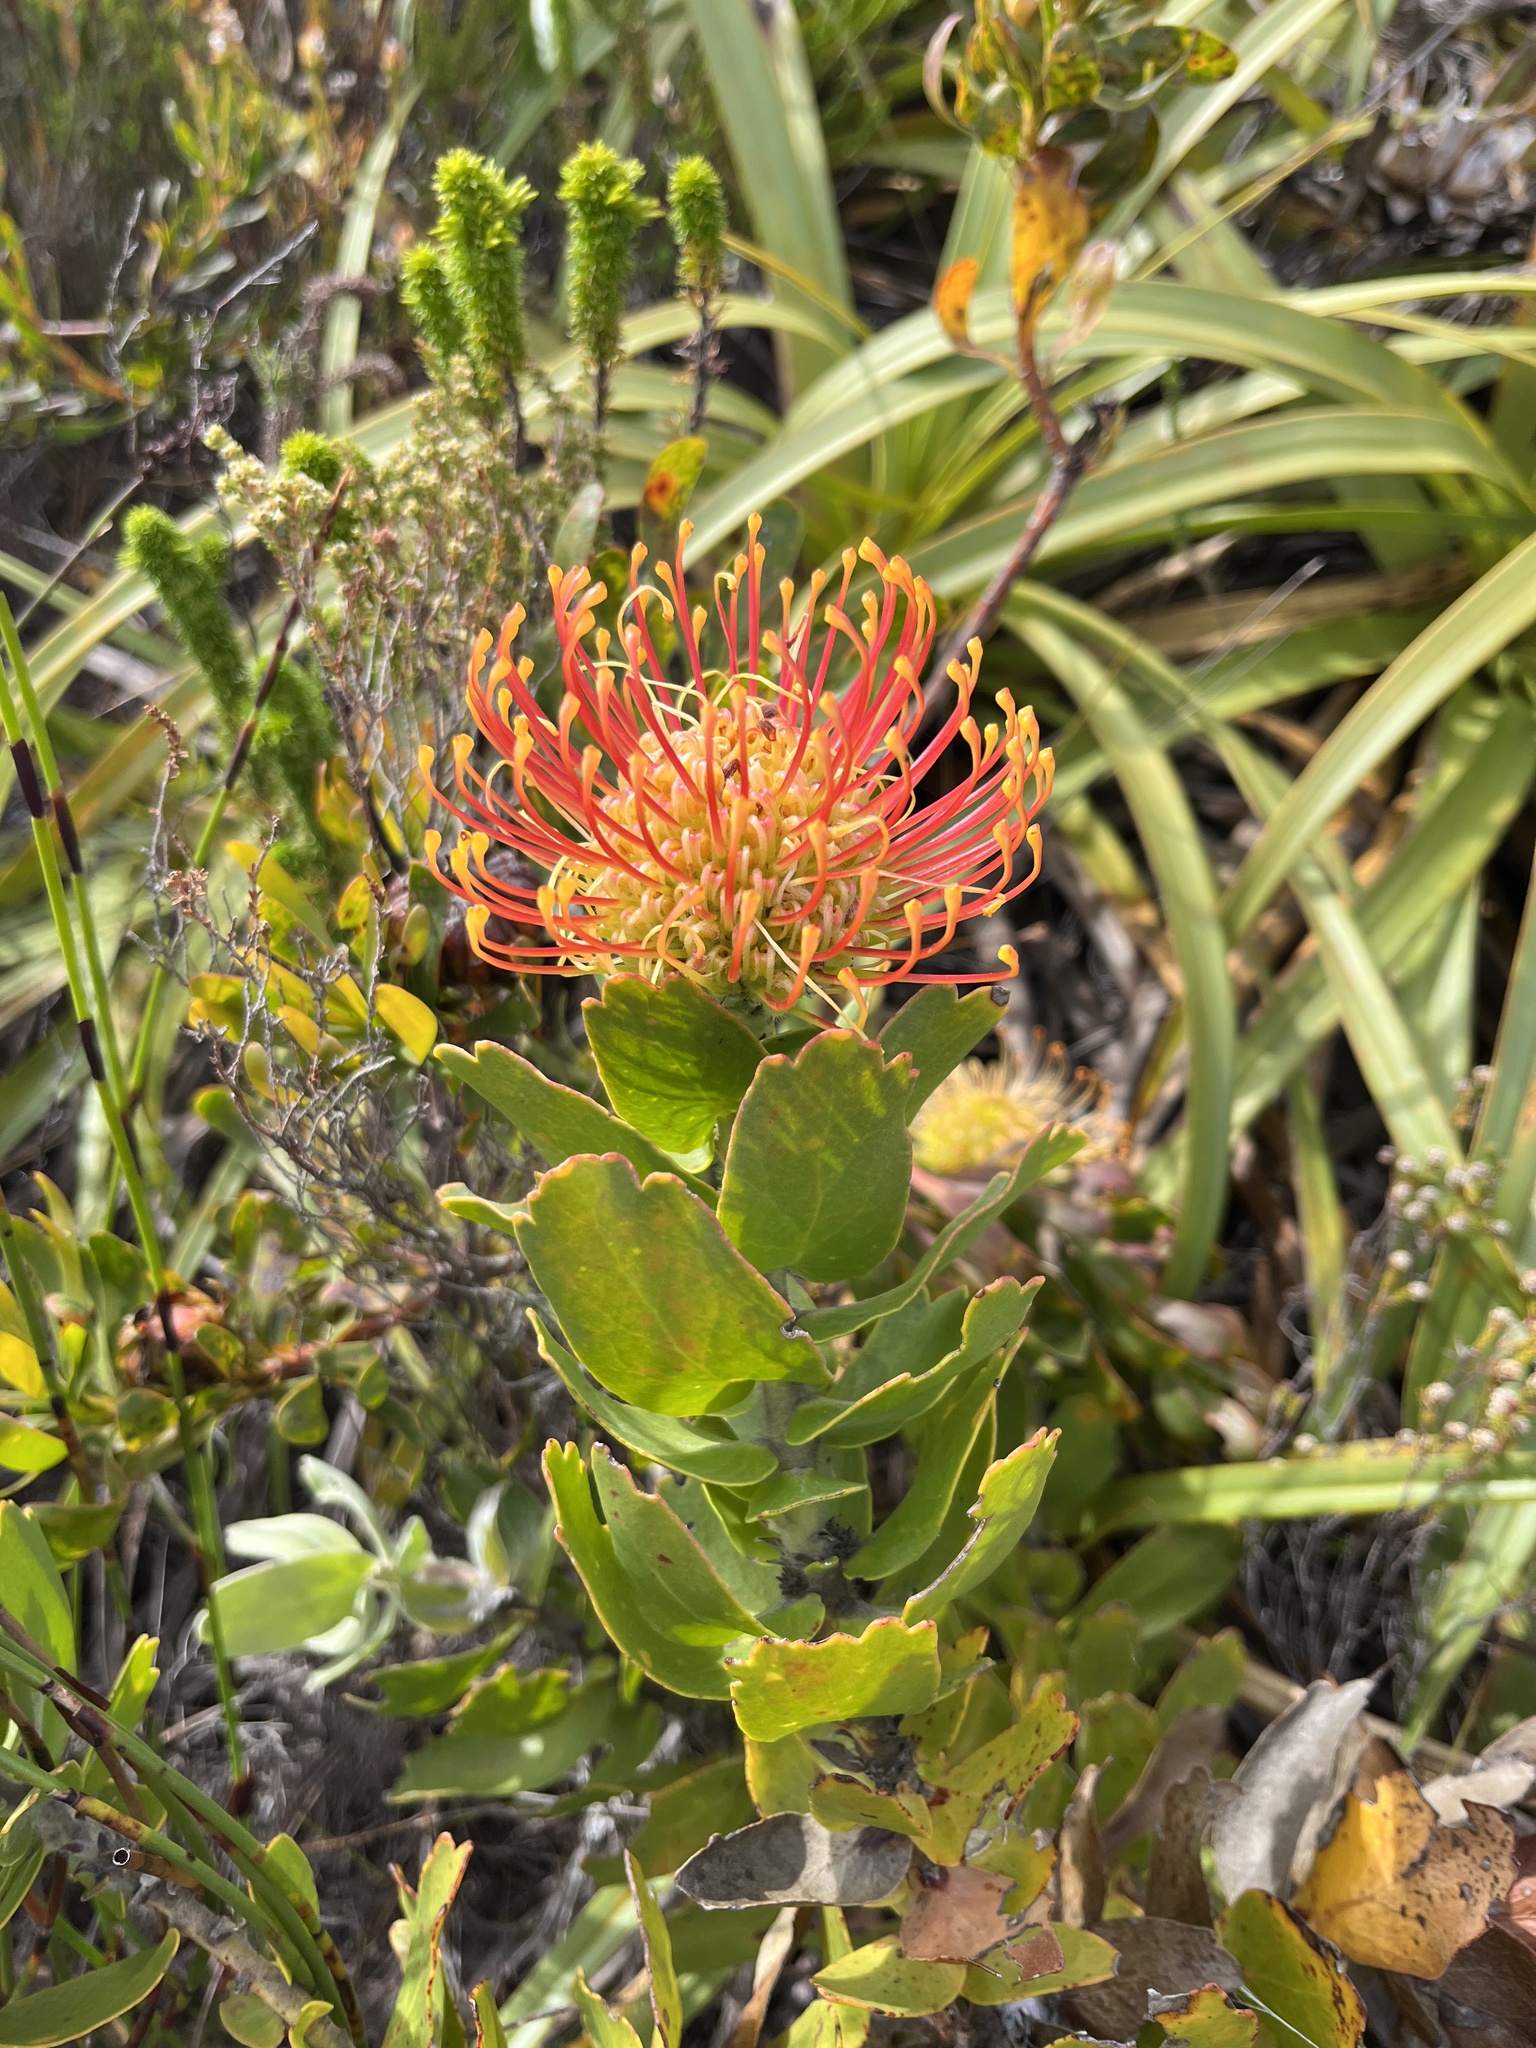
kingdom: Plantae
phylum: Tracheophyta
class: Magnoliopsida
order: Proteales
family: Proteaceae
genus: Leucospermum
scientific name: Leucospermum cordifolium
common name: Red pincushion-protea
